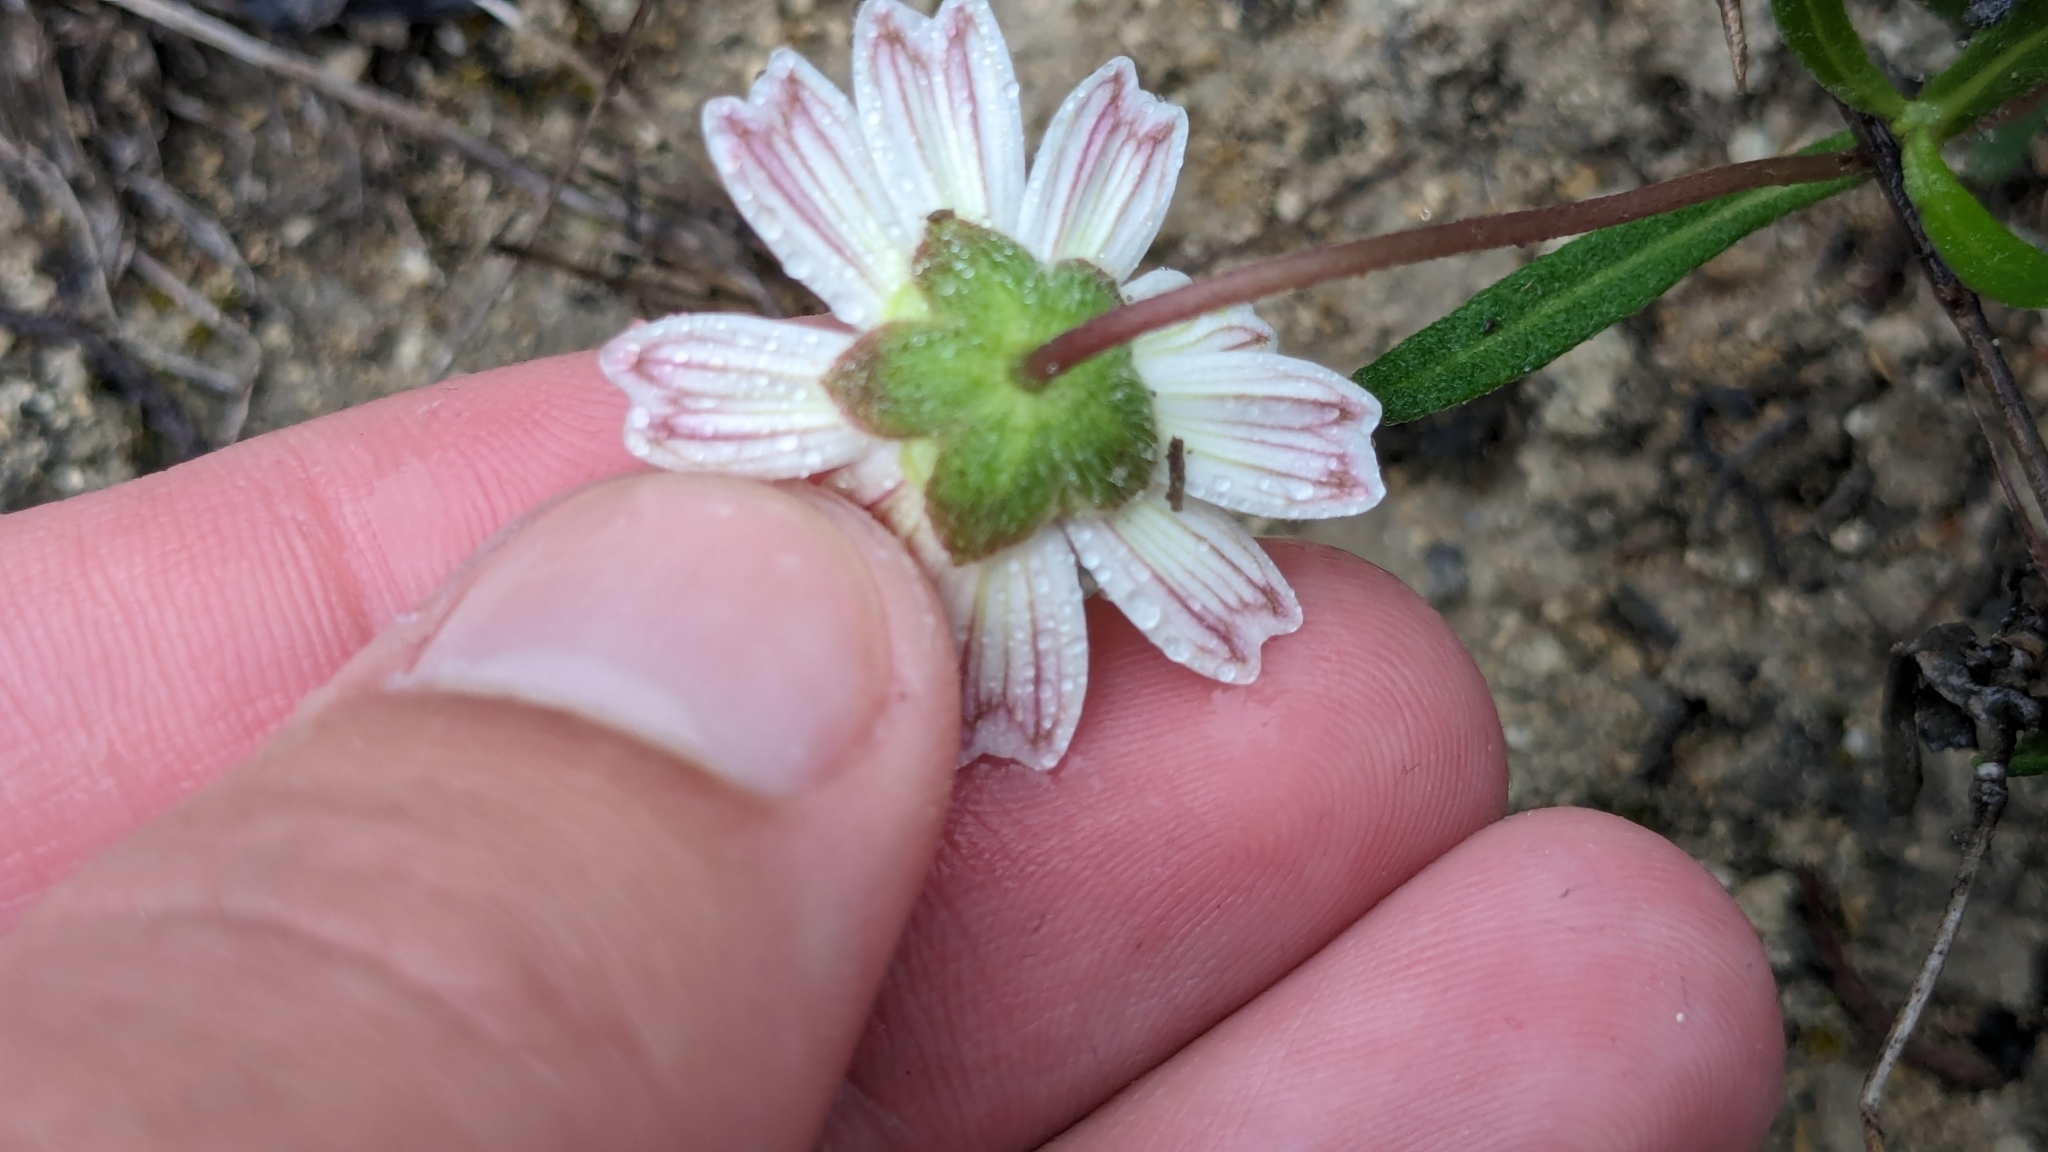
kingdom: Plantae
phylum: Tracheophyta
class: Magnoliopsida
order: Asterales
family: Asteraceae
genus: Melampodium
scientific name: Melampodium leucanthum
